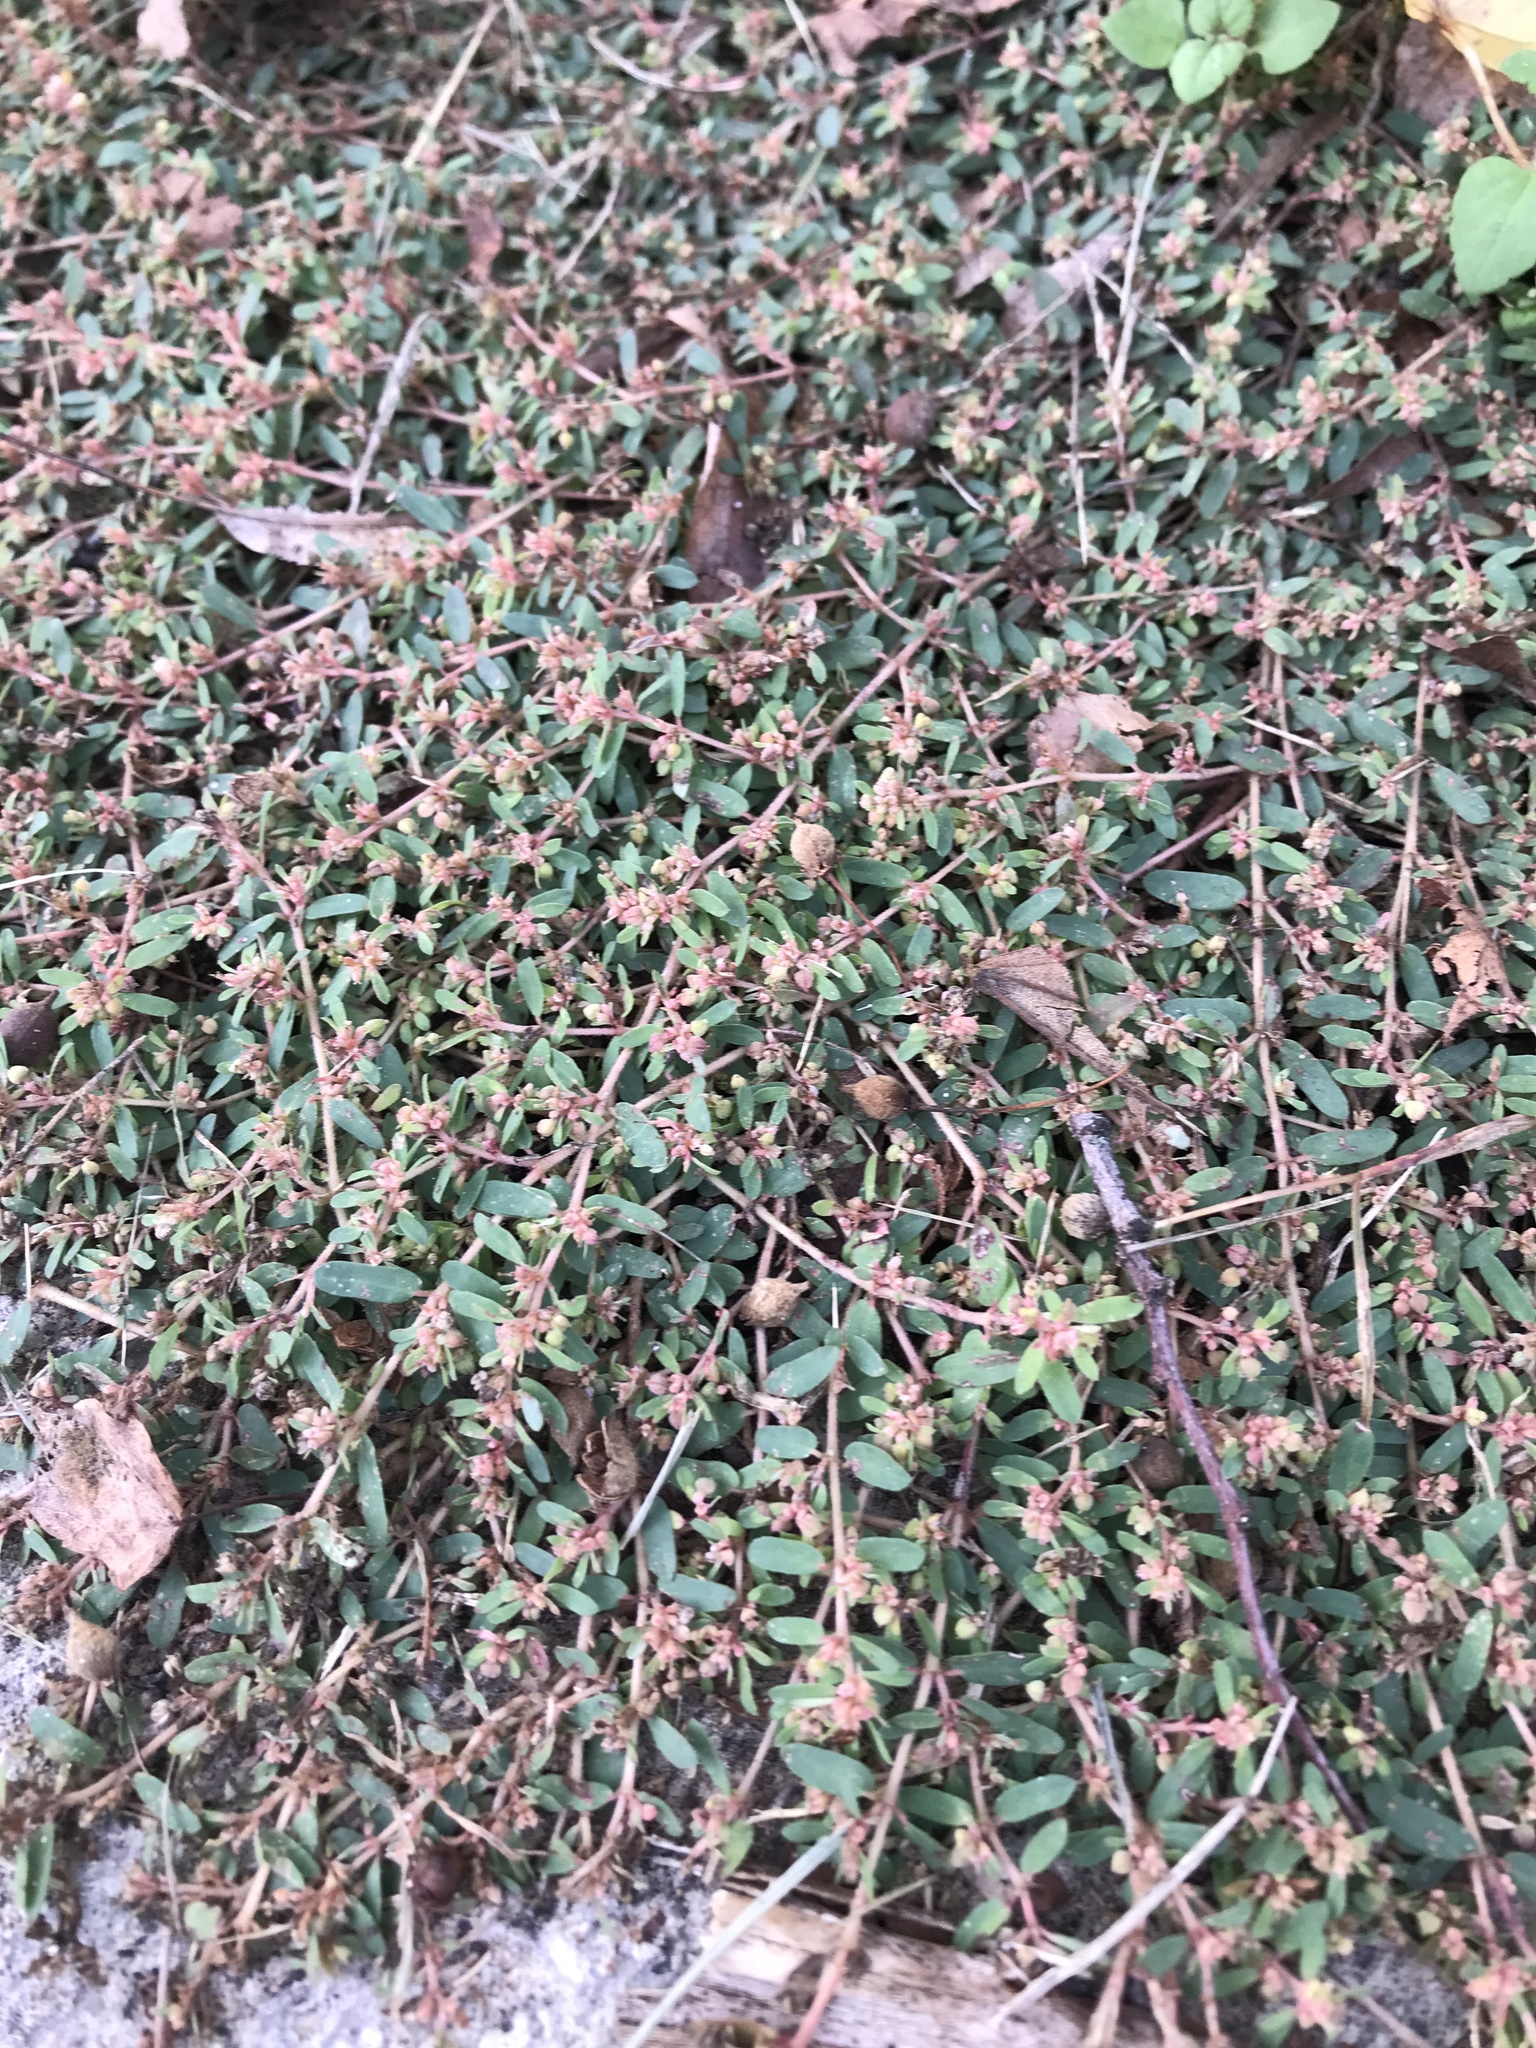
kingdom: Plantae
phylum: Tracheophyta
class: Magnoliopsida
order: Malpighiales
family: Euphorbiaceae
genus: Euphorbia
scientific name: Euphorbia maculata
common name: Spotted spurge
